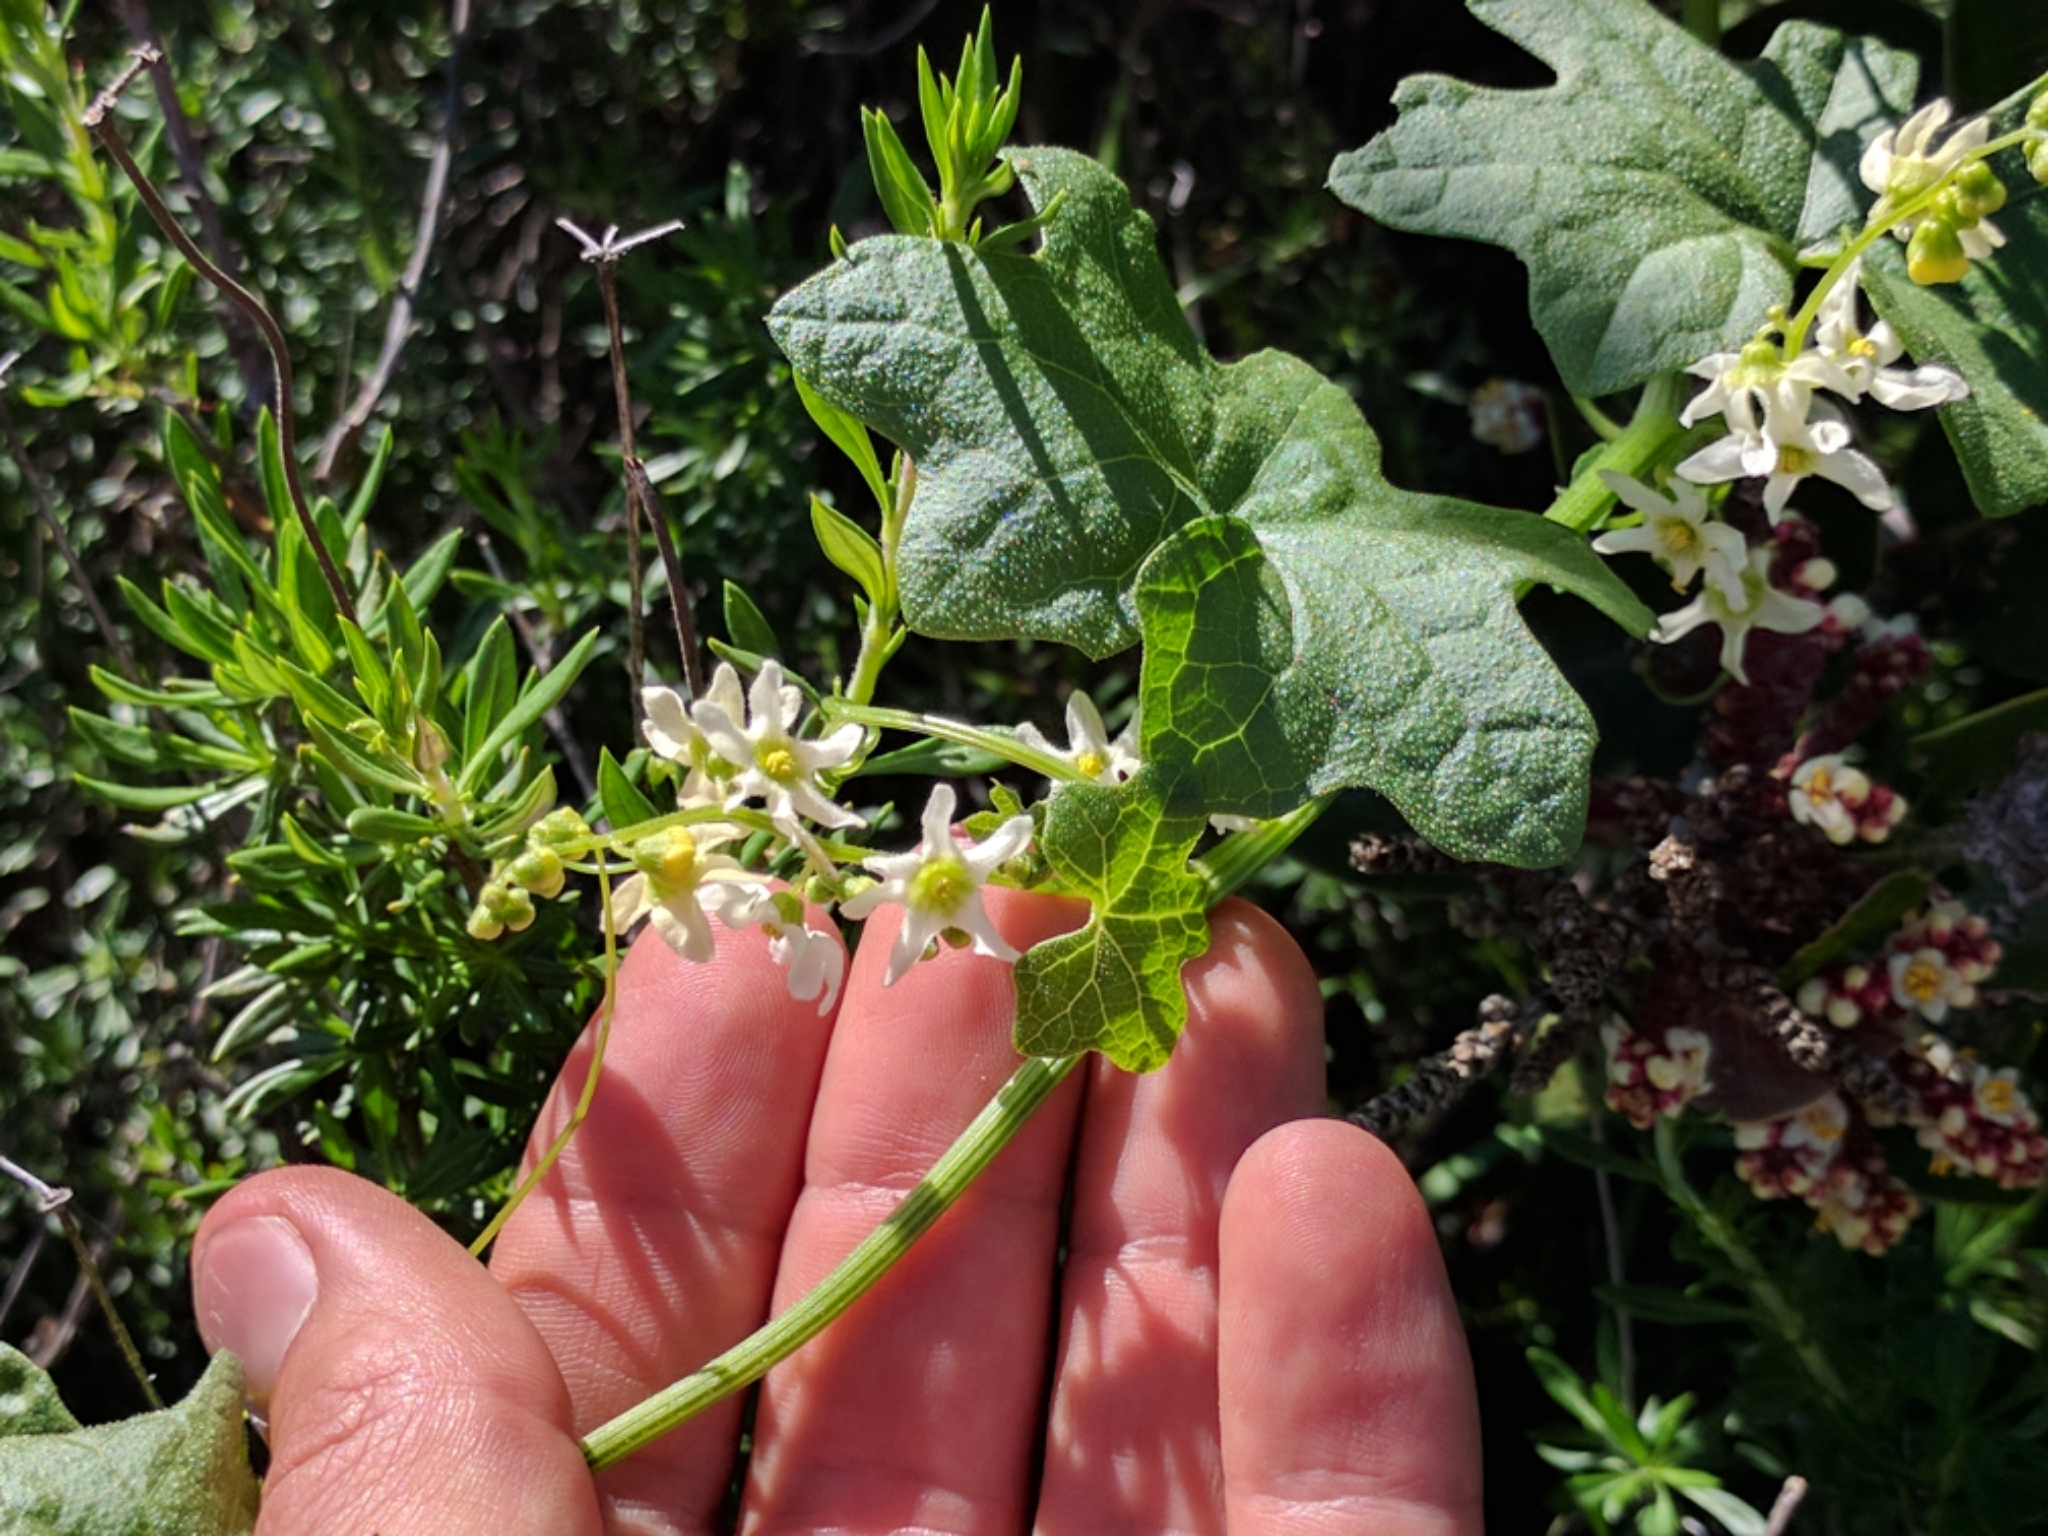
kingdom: Plantae
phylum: Tracheophyta
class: Magnoliopsida
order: Cucurbitales
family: Cucurbitaceae
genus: Marah
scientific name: Marah macrocarpa
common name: Cucamonga manroot
